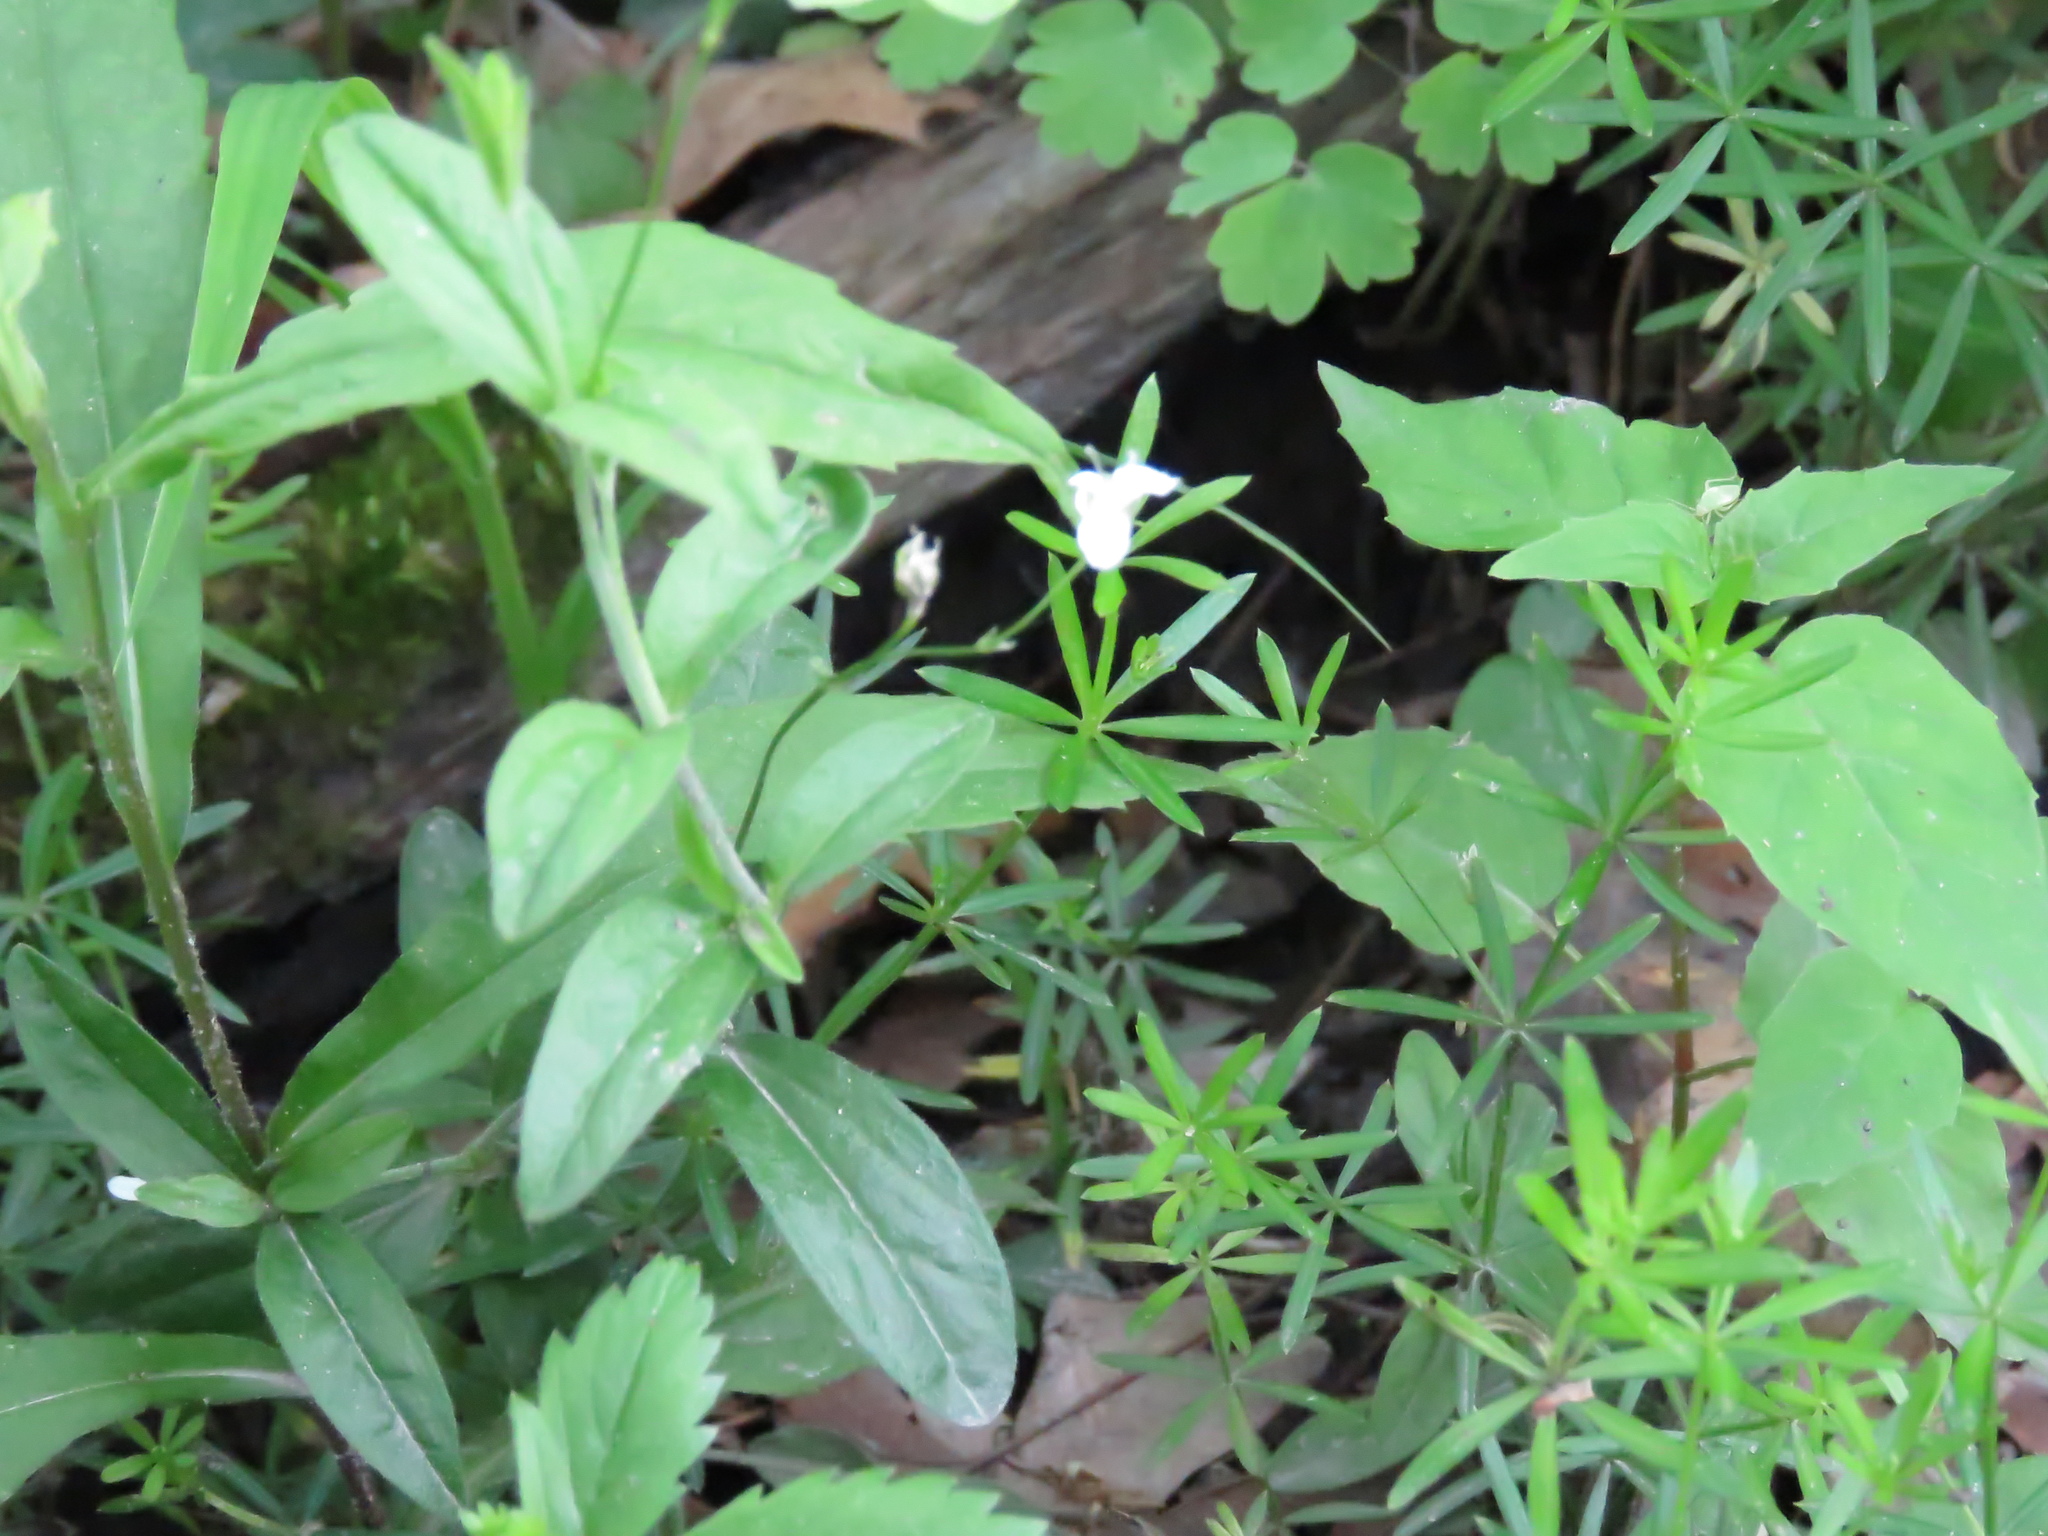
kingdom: Plantae
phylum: Tracheophyta
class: Magnoliopsida
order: Caryophyllales
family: Caryophyllaceae
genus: Moehringia
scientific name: Moehringia lateriflora
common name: Blunt-leaved sandwort
